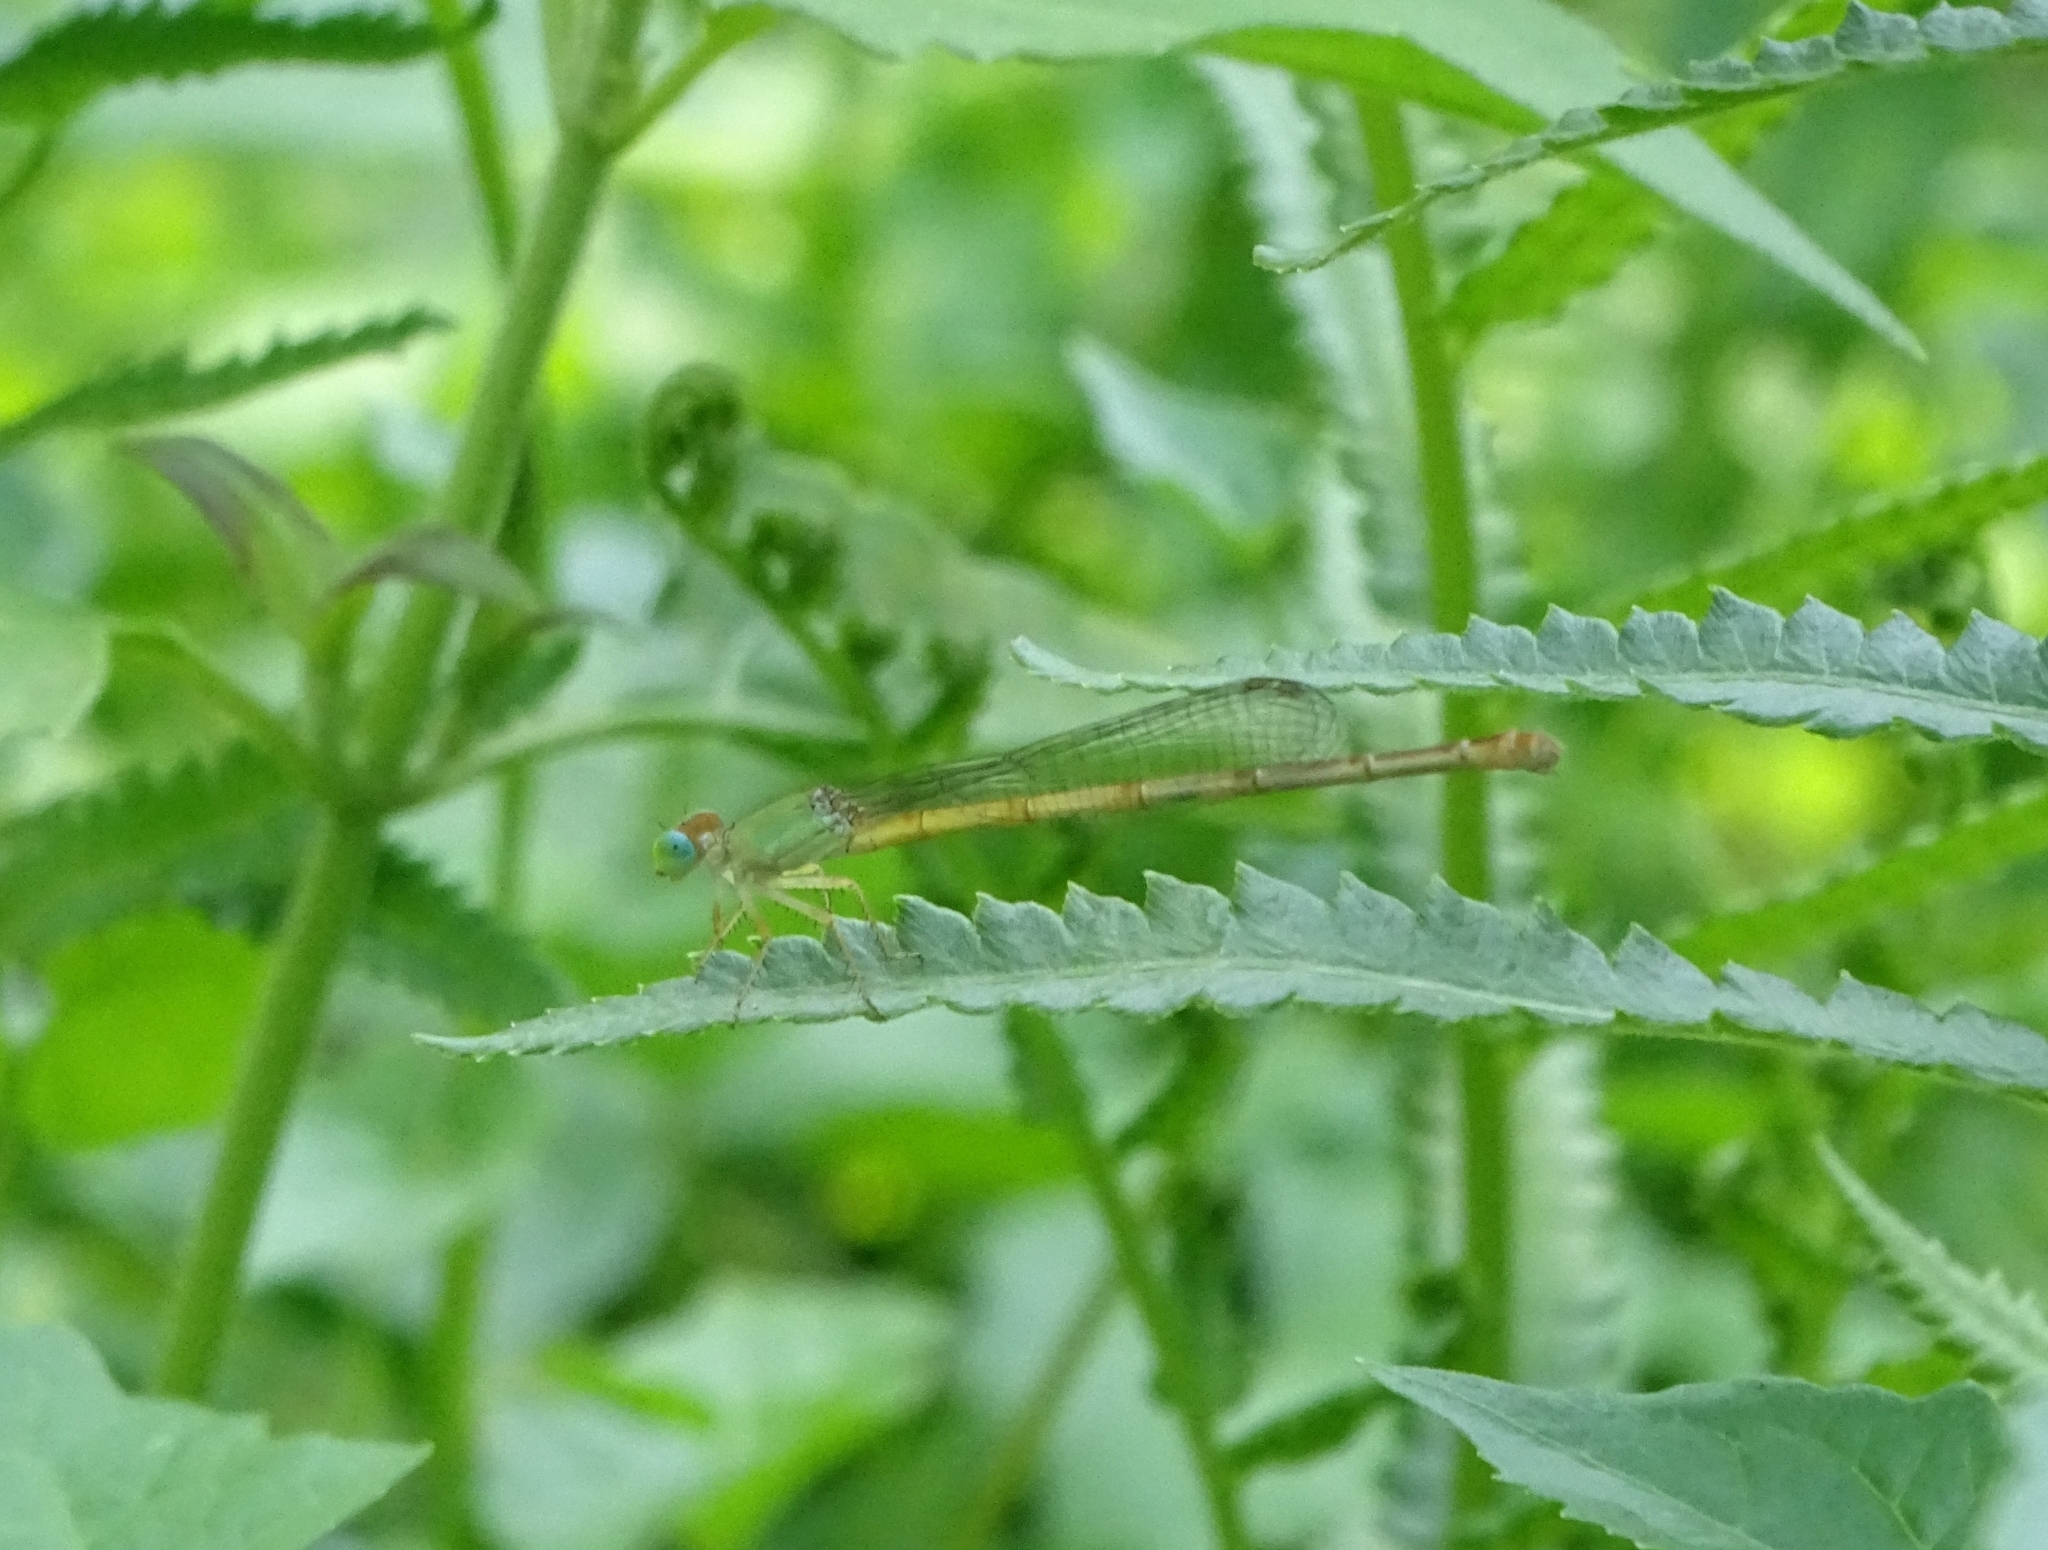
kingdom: Animalia
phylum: Arthropoda
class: Insecta
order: Odonata
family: Coenagrionidae
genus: Ceriagrion
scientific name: Ceriagrion coromandelianum
